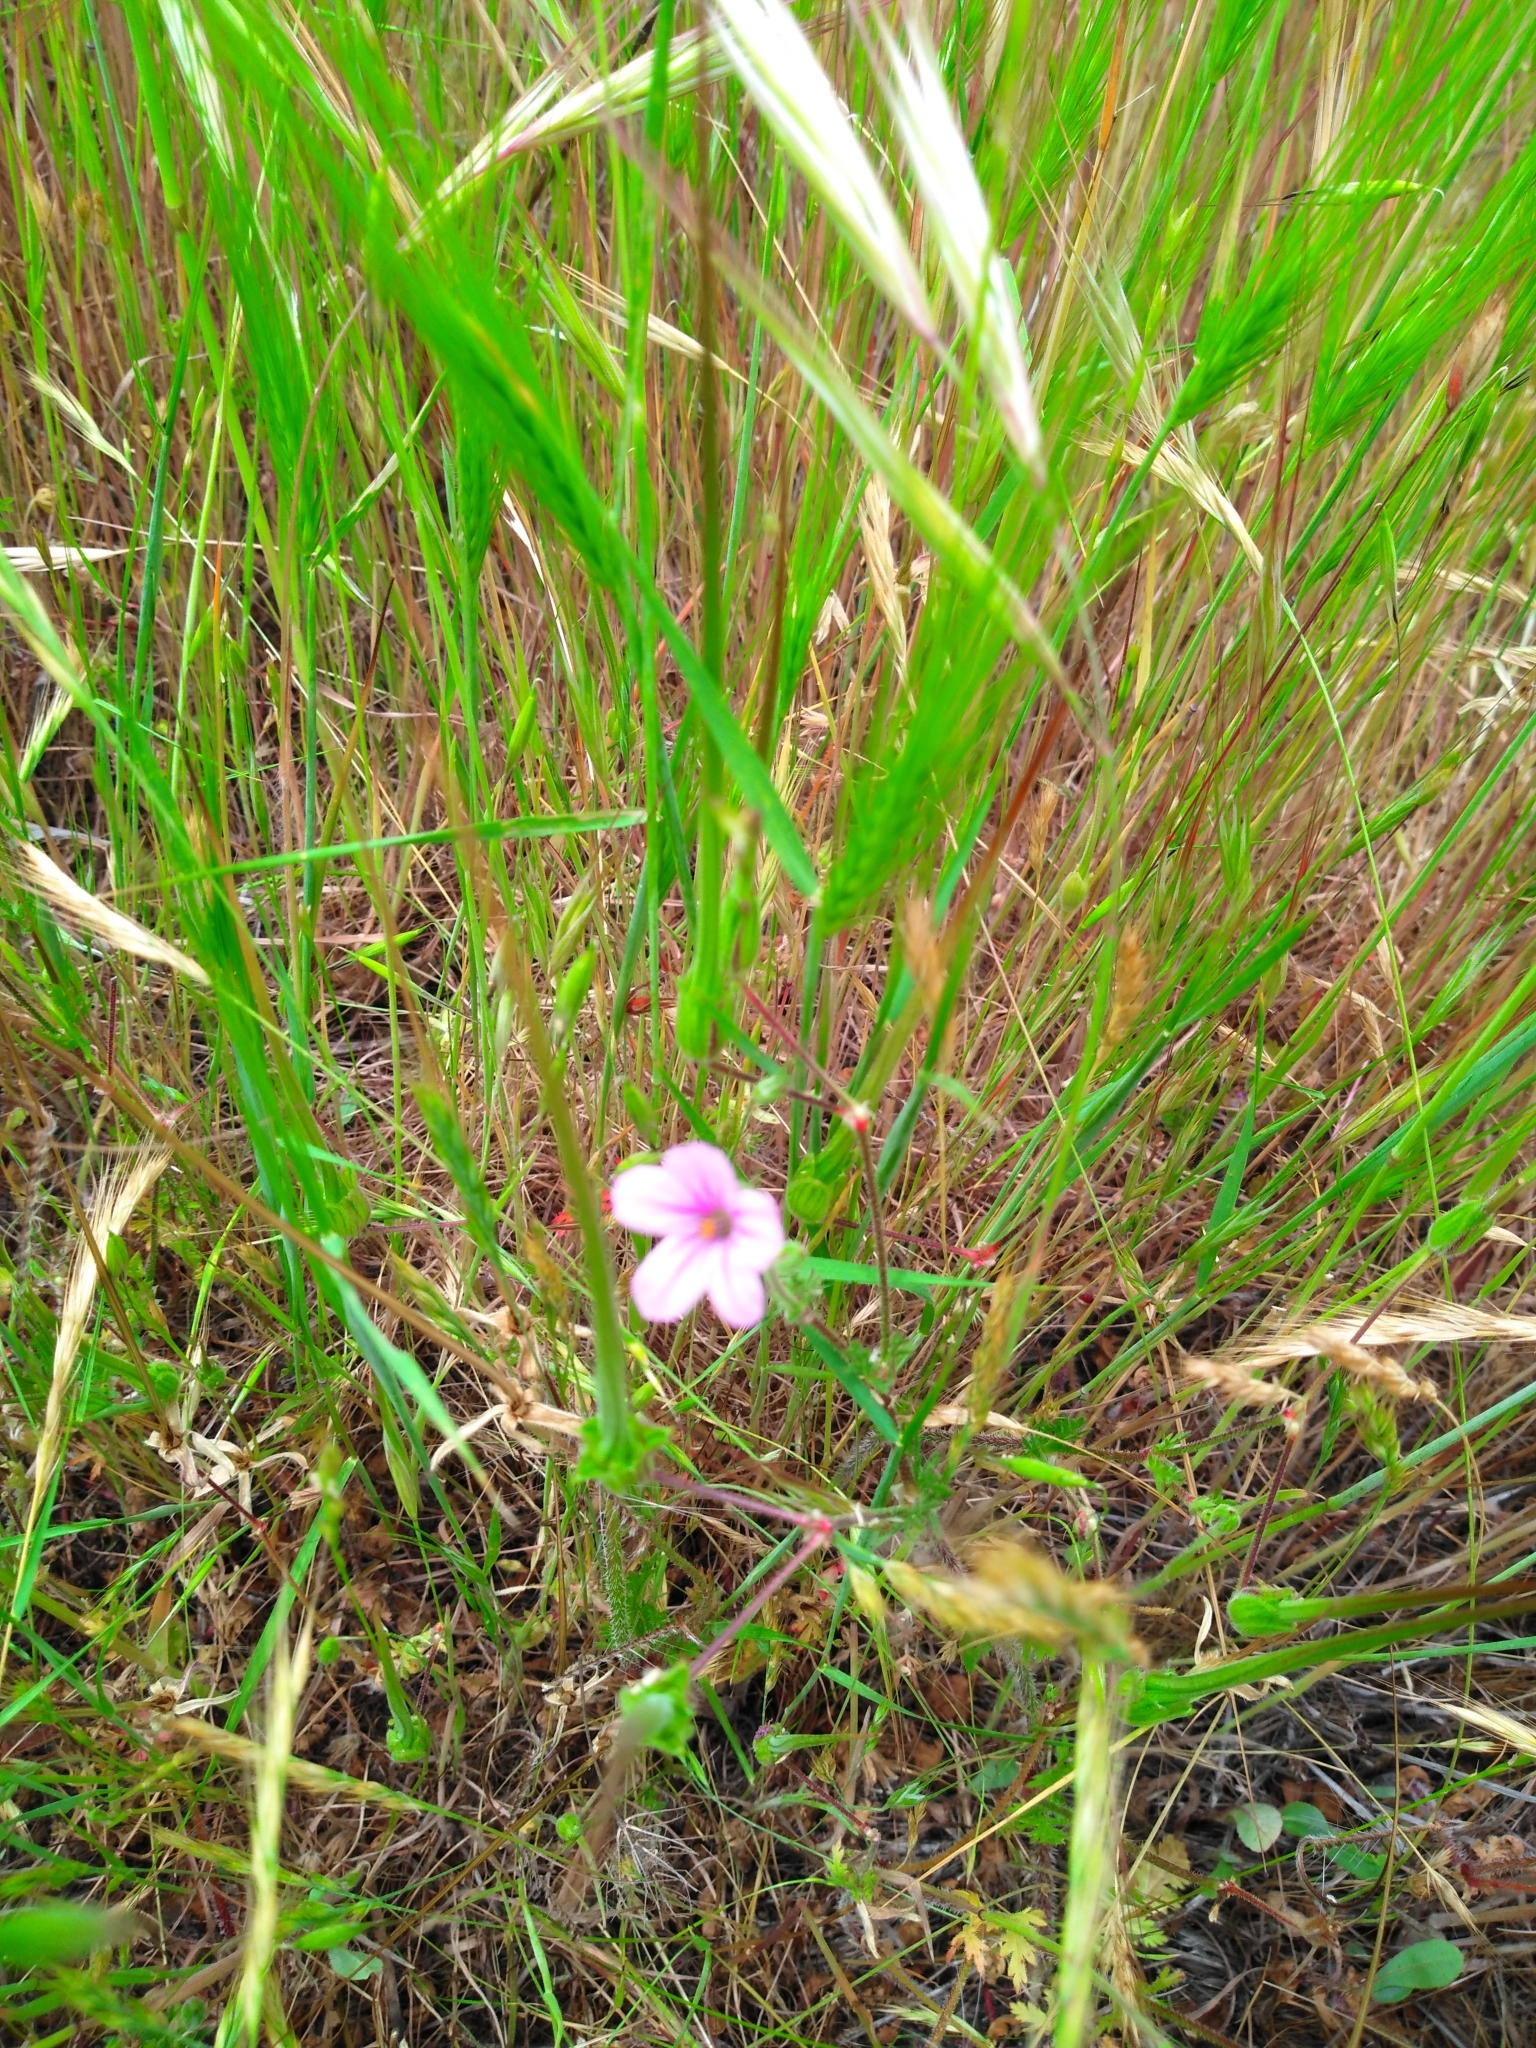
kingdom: Plantae
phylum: Tracheophyta
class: Magnoliopsida
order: Geraniales
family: Geraniaceae
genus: Erodium
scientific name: Erodium botrys
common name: Mediterranean stork's-bill
